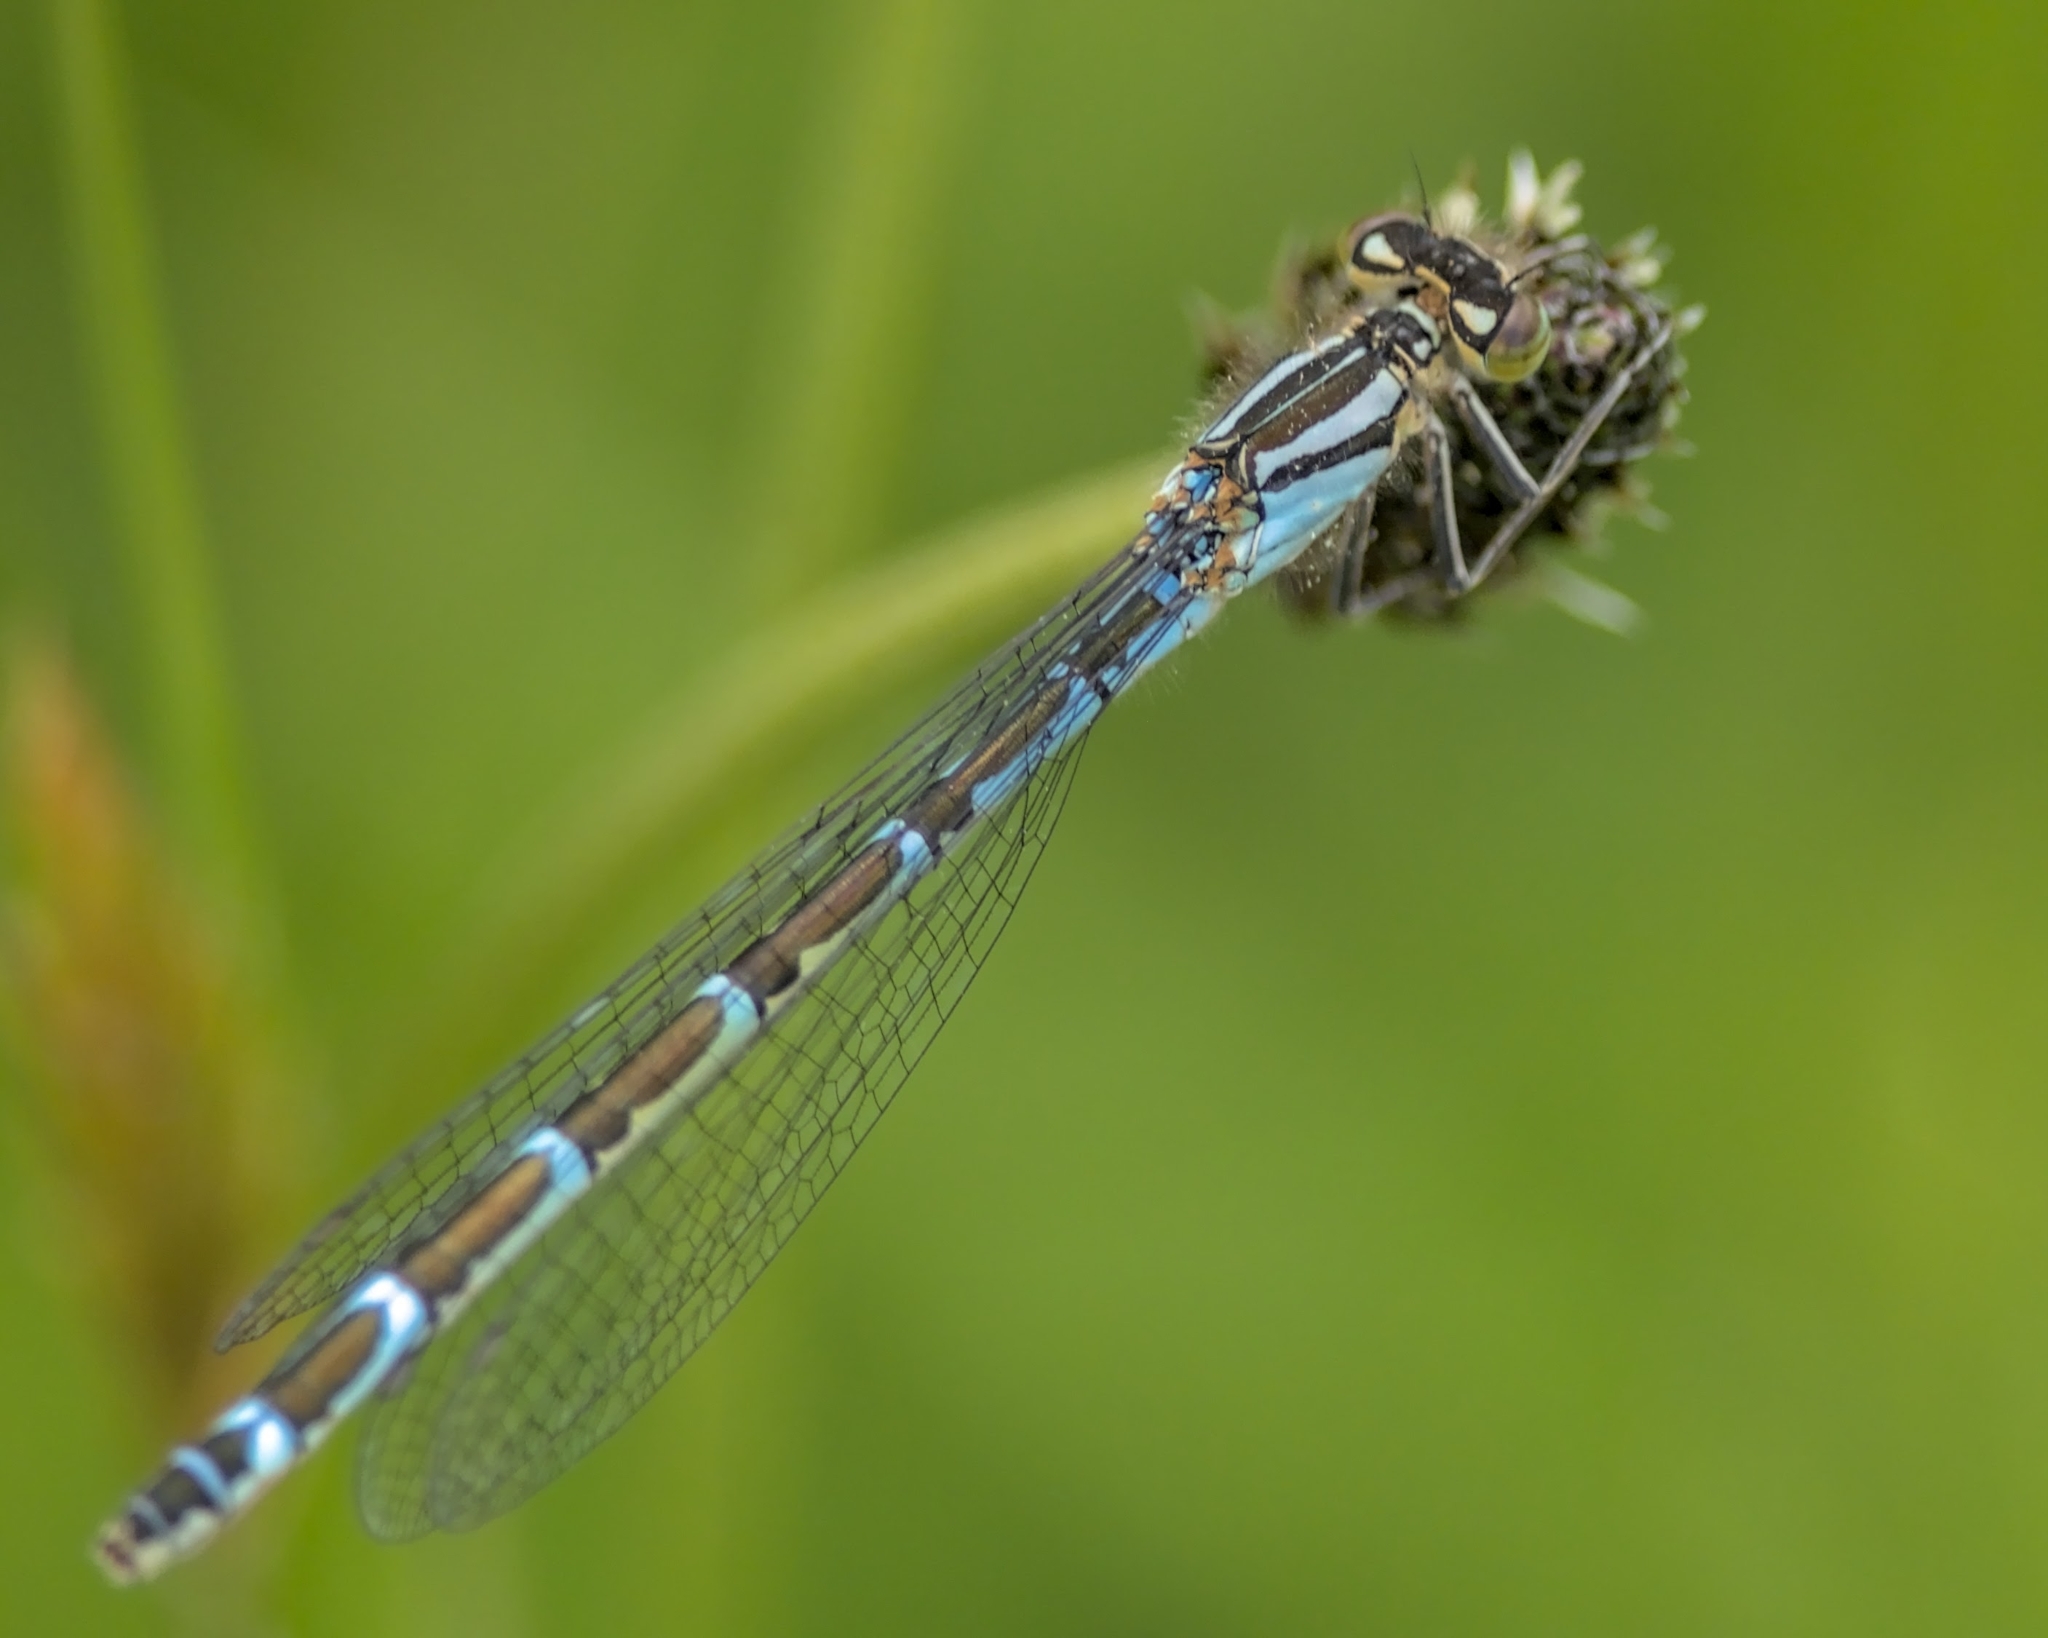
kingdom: Animalia
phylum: Arthropoda
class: Insecta
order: Odonata
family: Coenagrionidae
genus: Enallagma
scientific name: Enallagma cyathigerum
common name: Common blue damselfly
